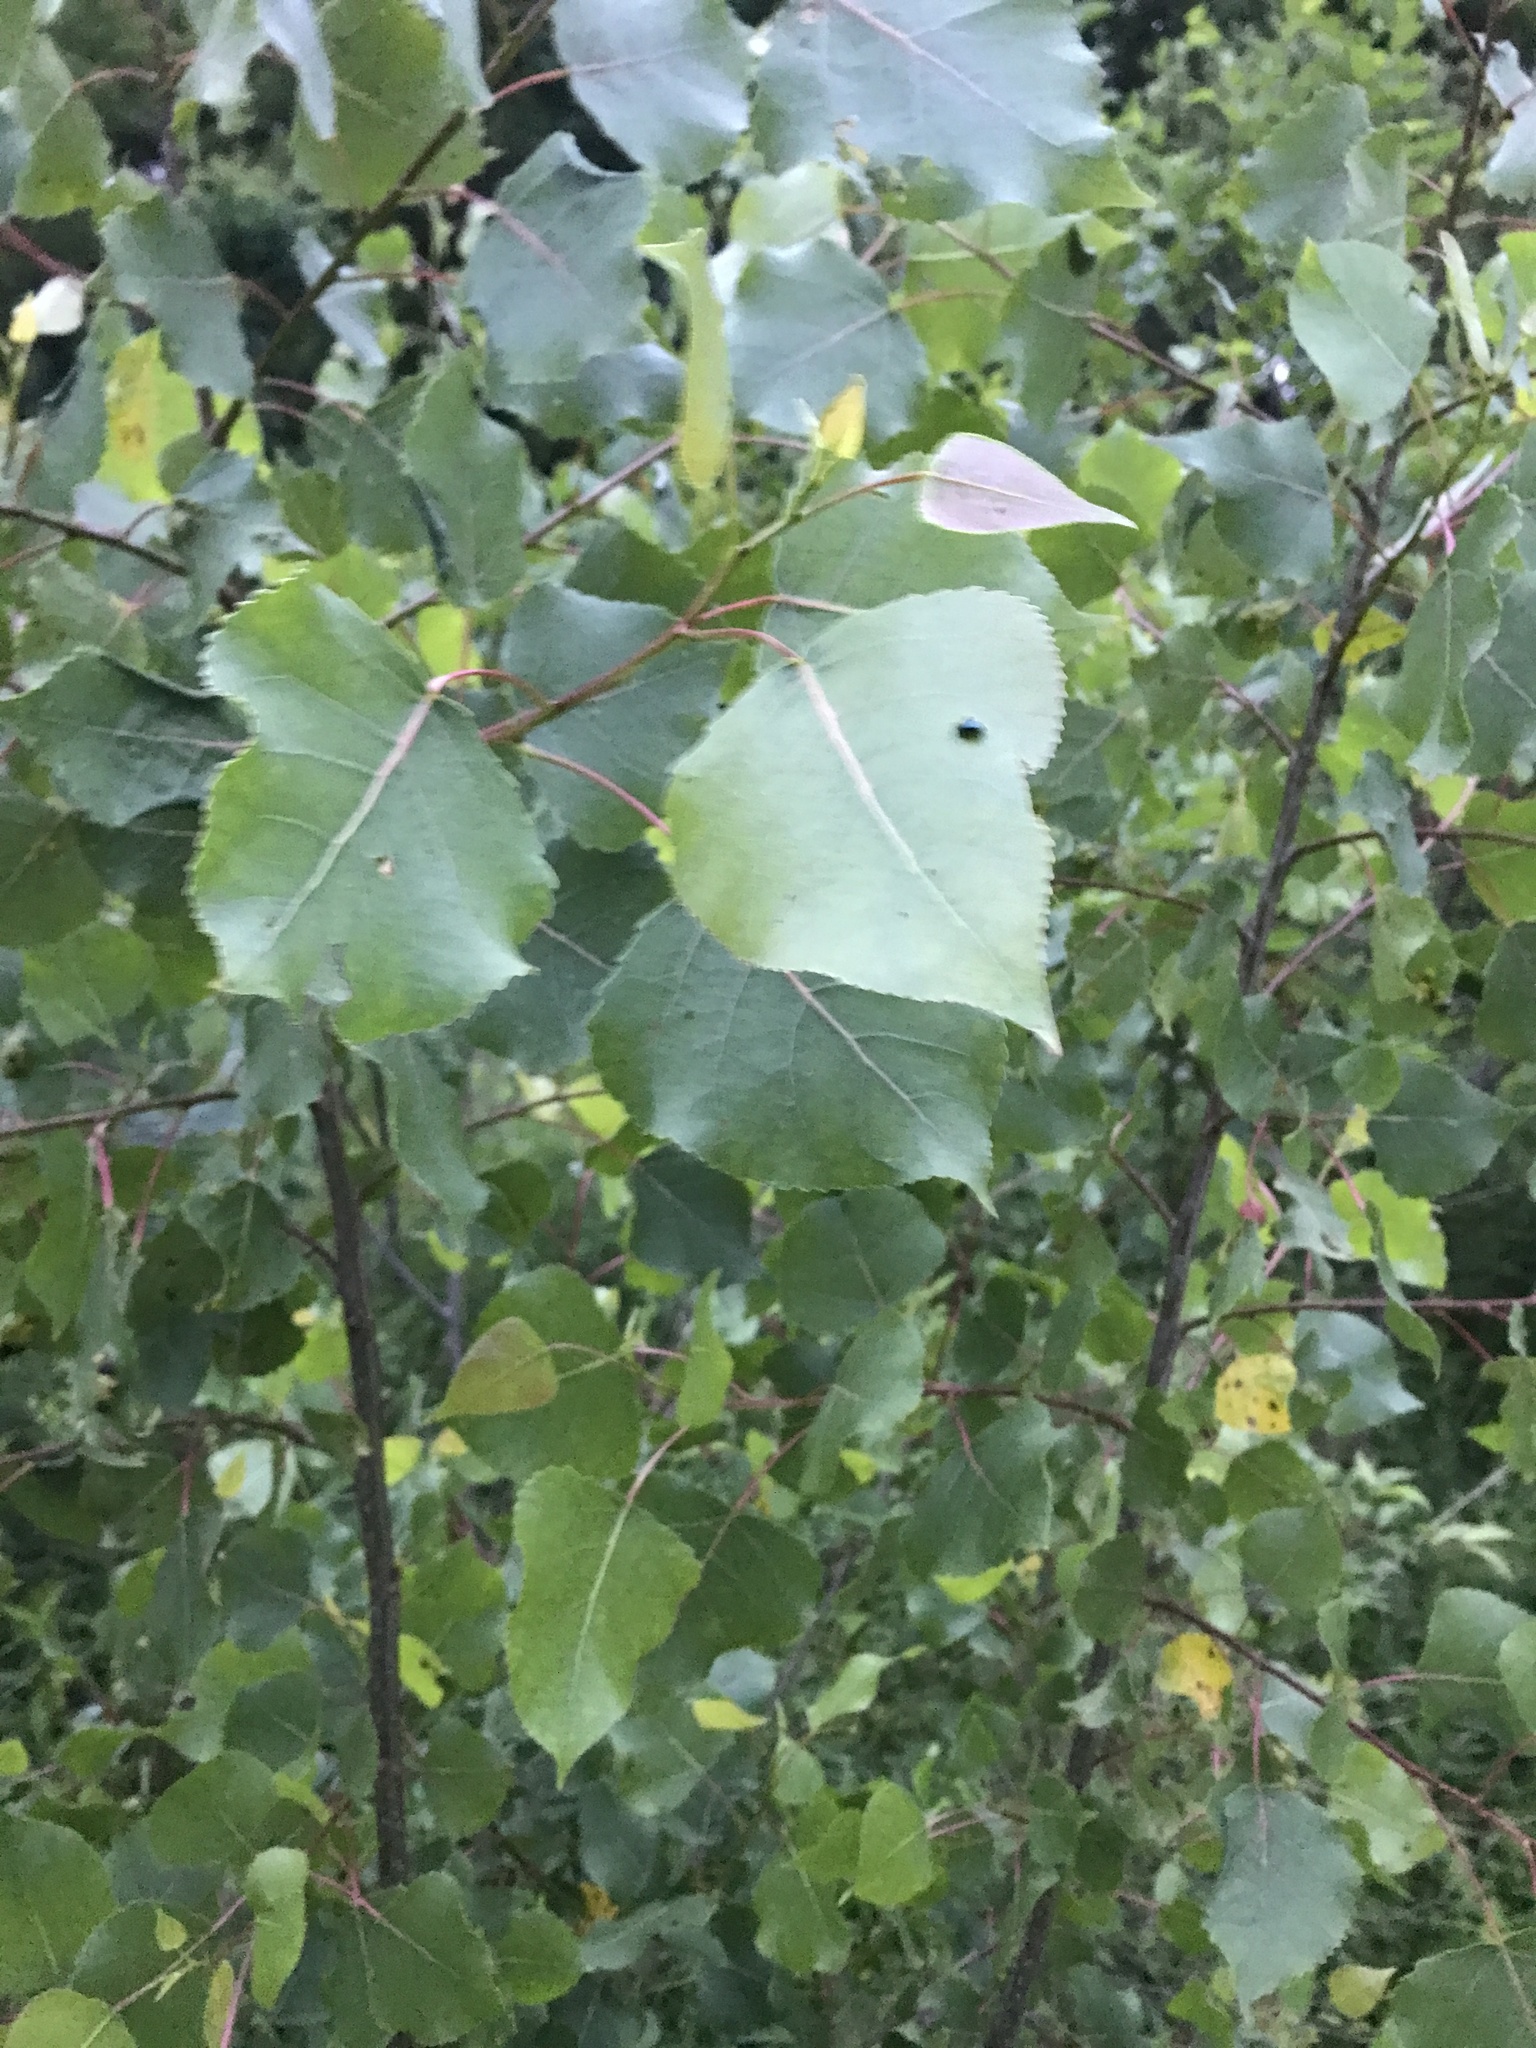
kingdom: Plantae
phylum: Tracheophyta
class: Magnoliopsida
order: Malpighiales
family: Salicaceae
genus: Populus
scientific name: Populus deltoides
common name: Eastern cottonwood
